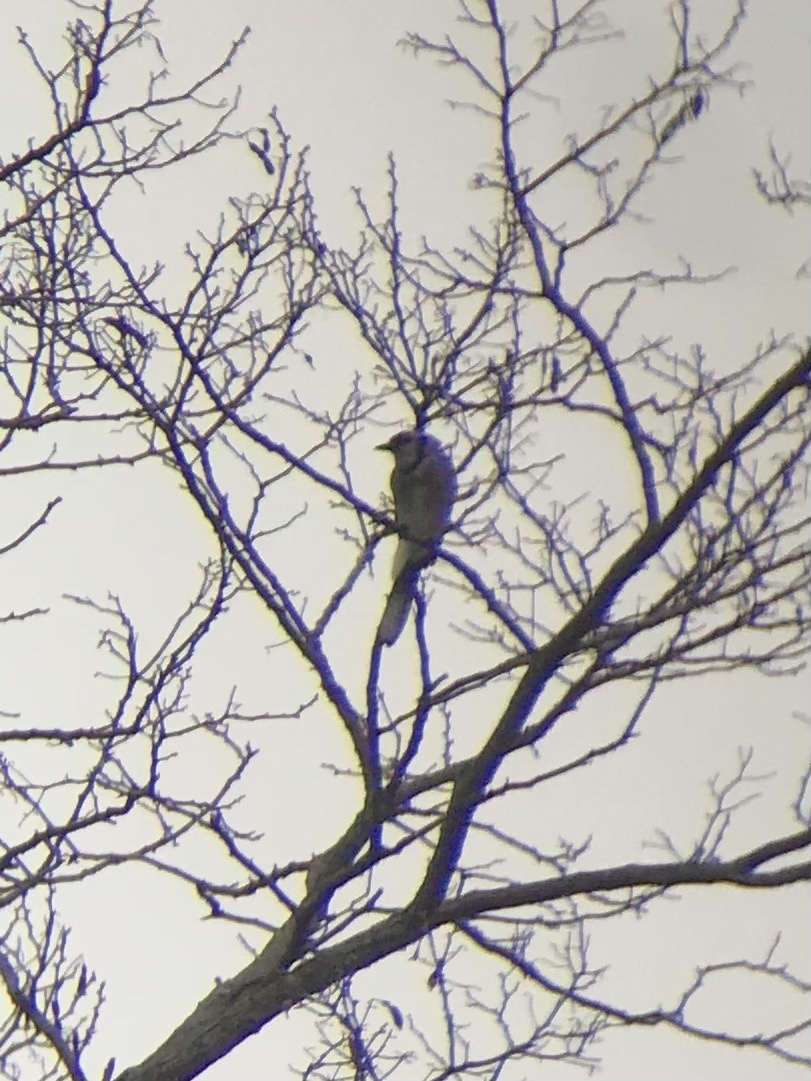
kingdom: Animalia
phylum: Chordata
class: Aves
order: Passeriformes
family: Corvidae
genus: Cyanocitta
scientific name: Cyanocitta cristata
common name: Blue jay
